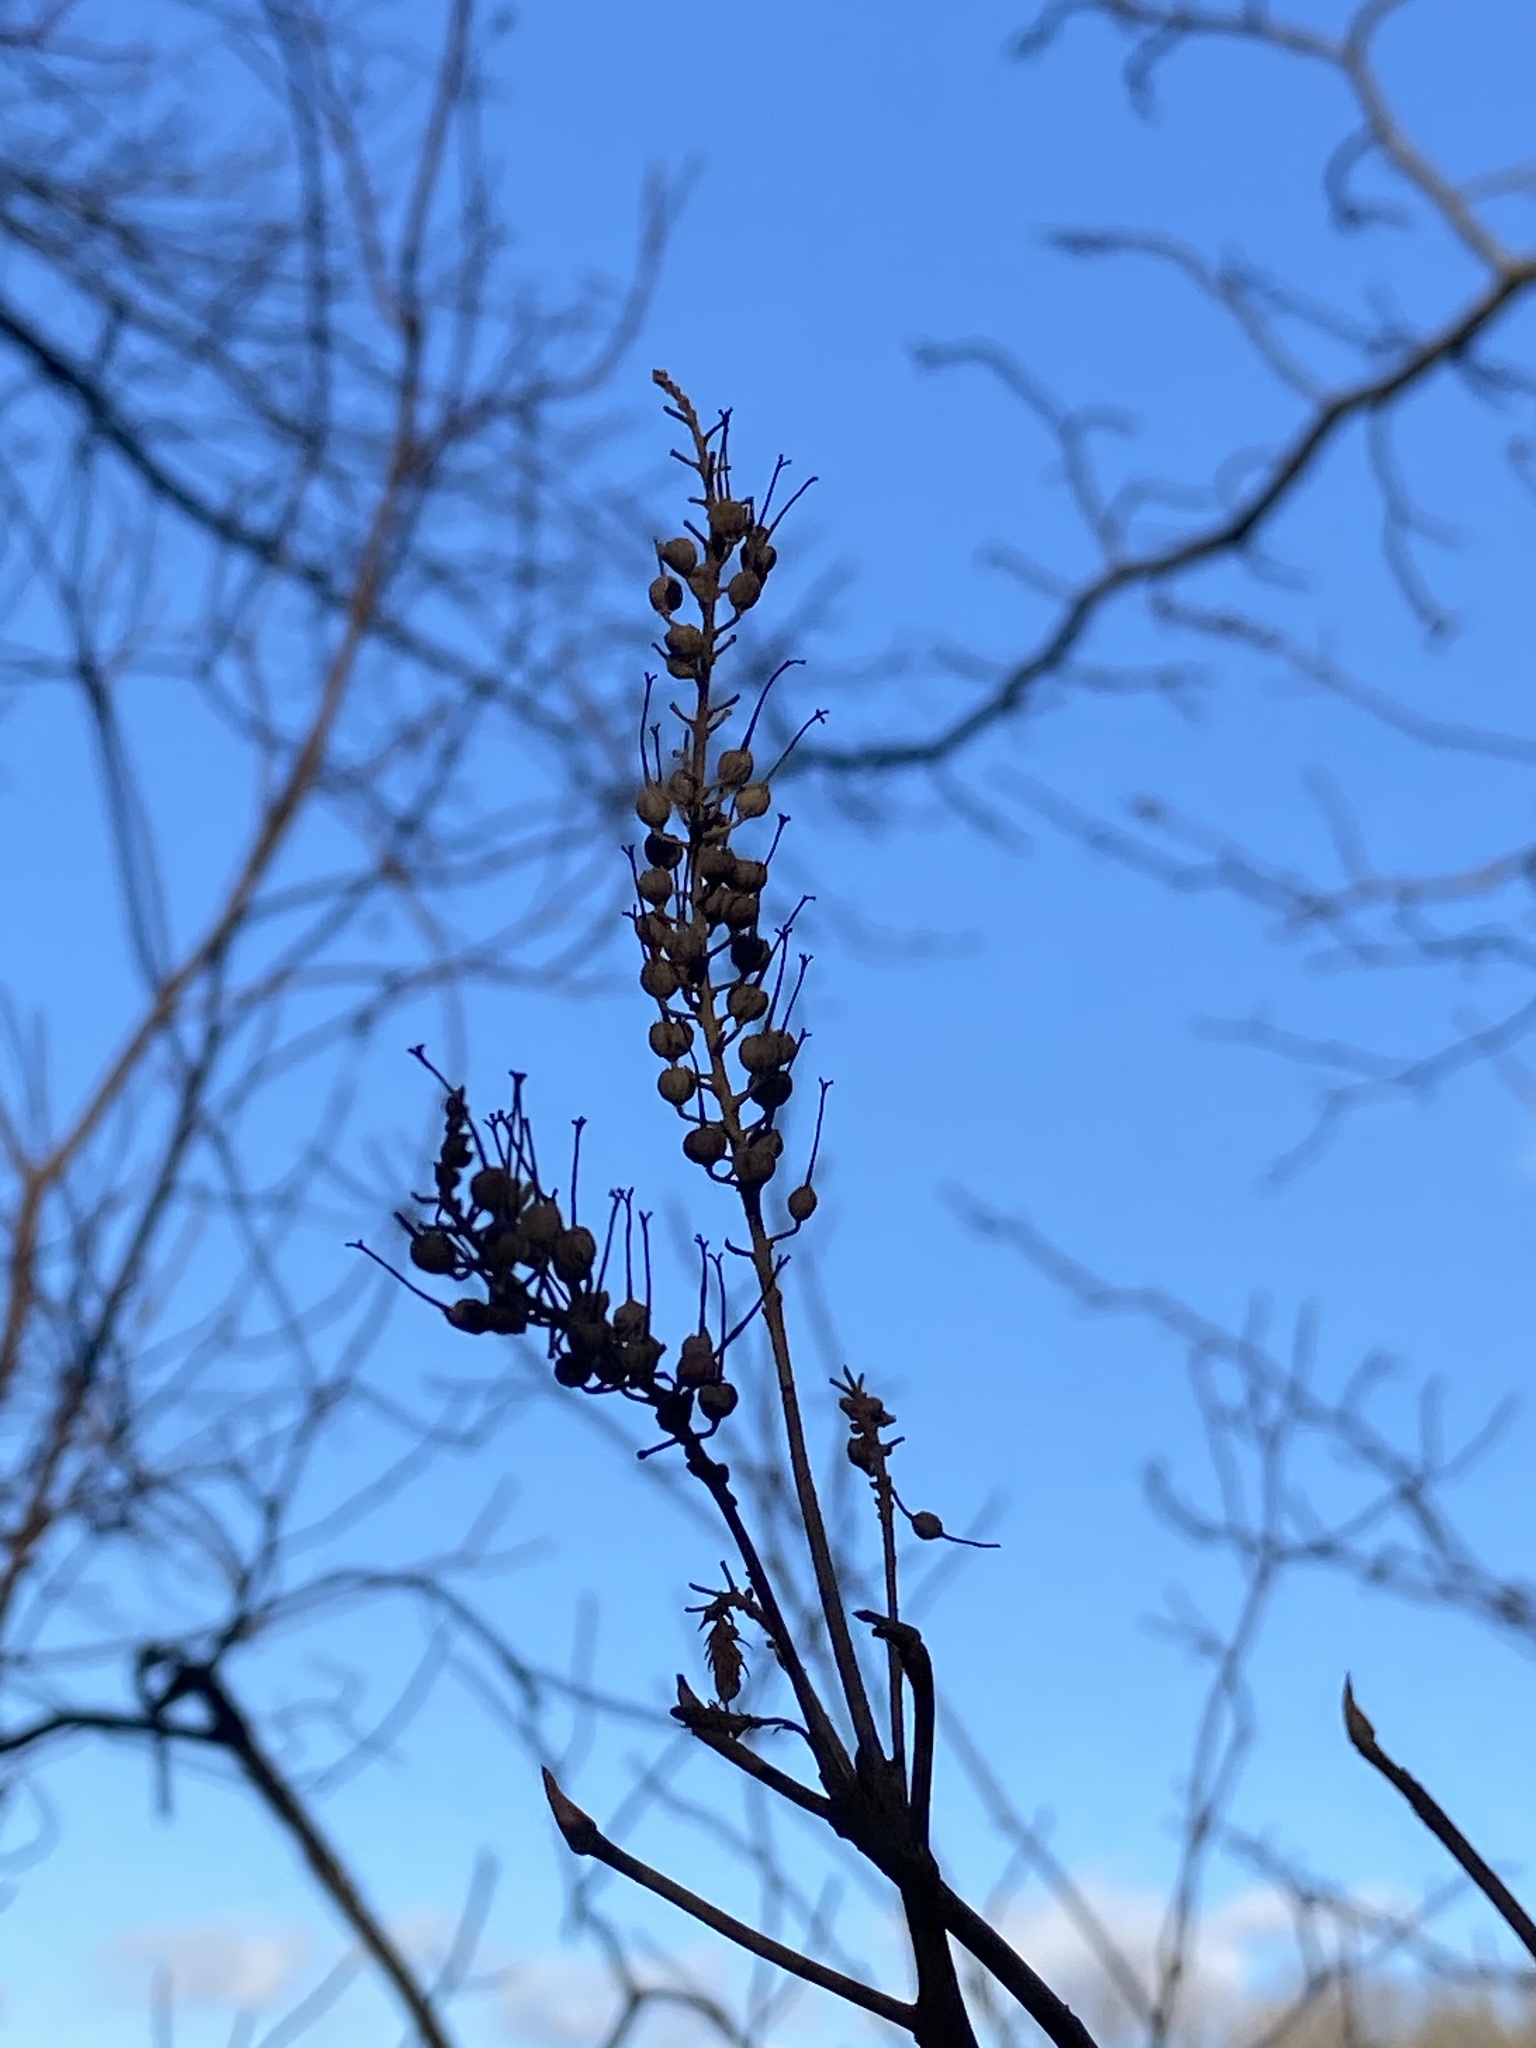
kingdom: Plantae
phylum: Tracheophyta
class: Magnoliopsida
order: Ericales
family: Clethraceae
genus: Clethra
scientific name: Clethra alnifolia
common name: Sweet pepperbush
